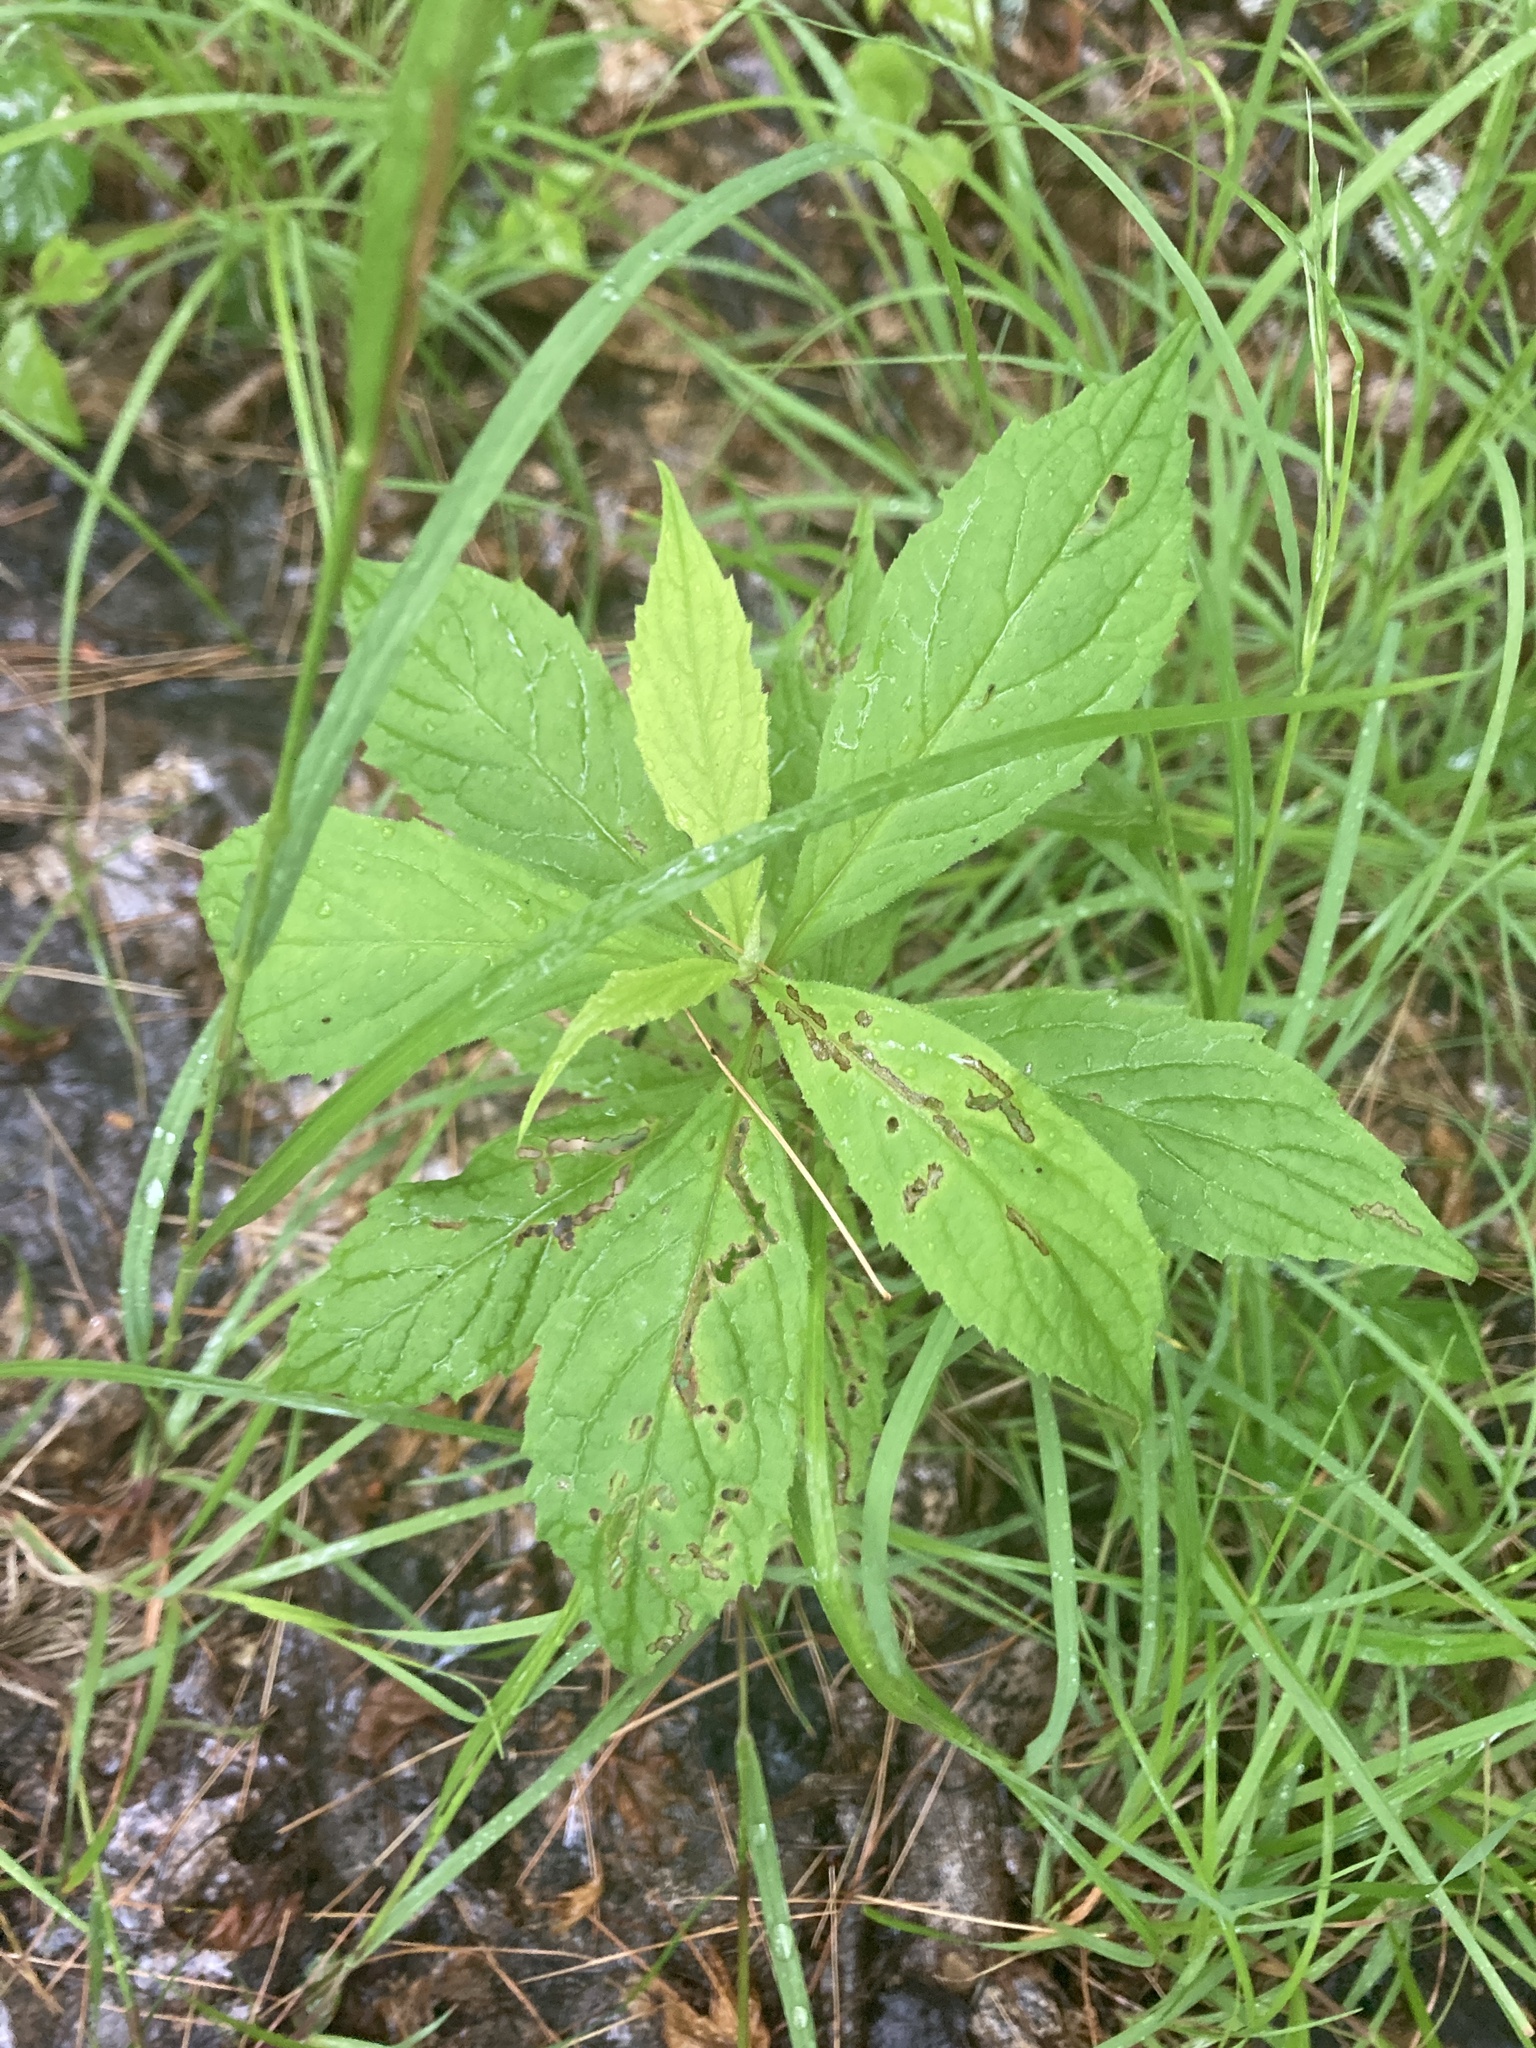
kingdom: Plantae
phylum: Tracheophyta
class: Magnoliopsida
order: Asterales
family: Asteraceae
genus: Oclemena
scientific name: Oclemena acuminata
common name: Mountain aster
